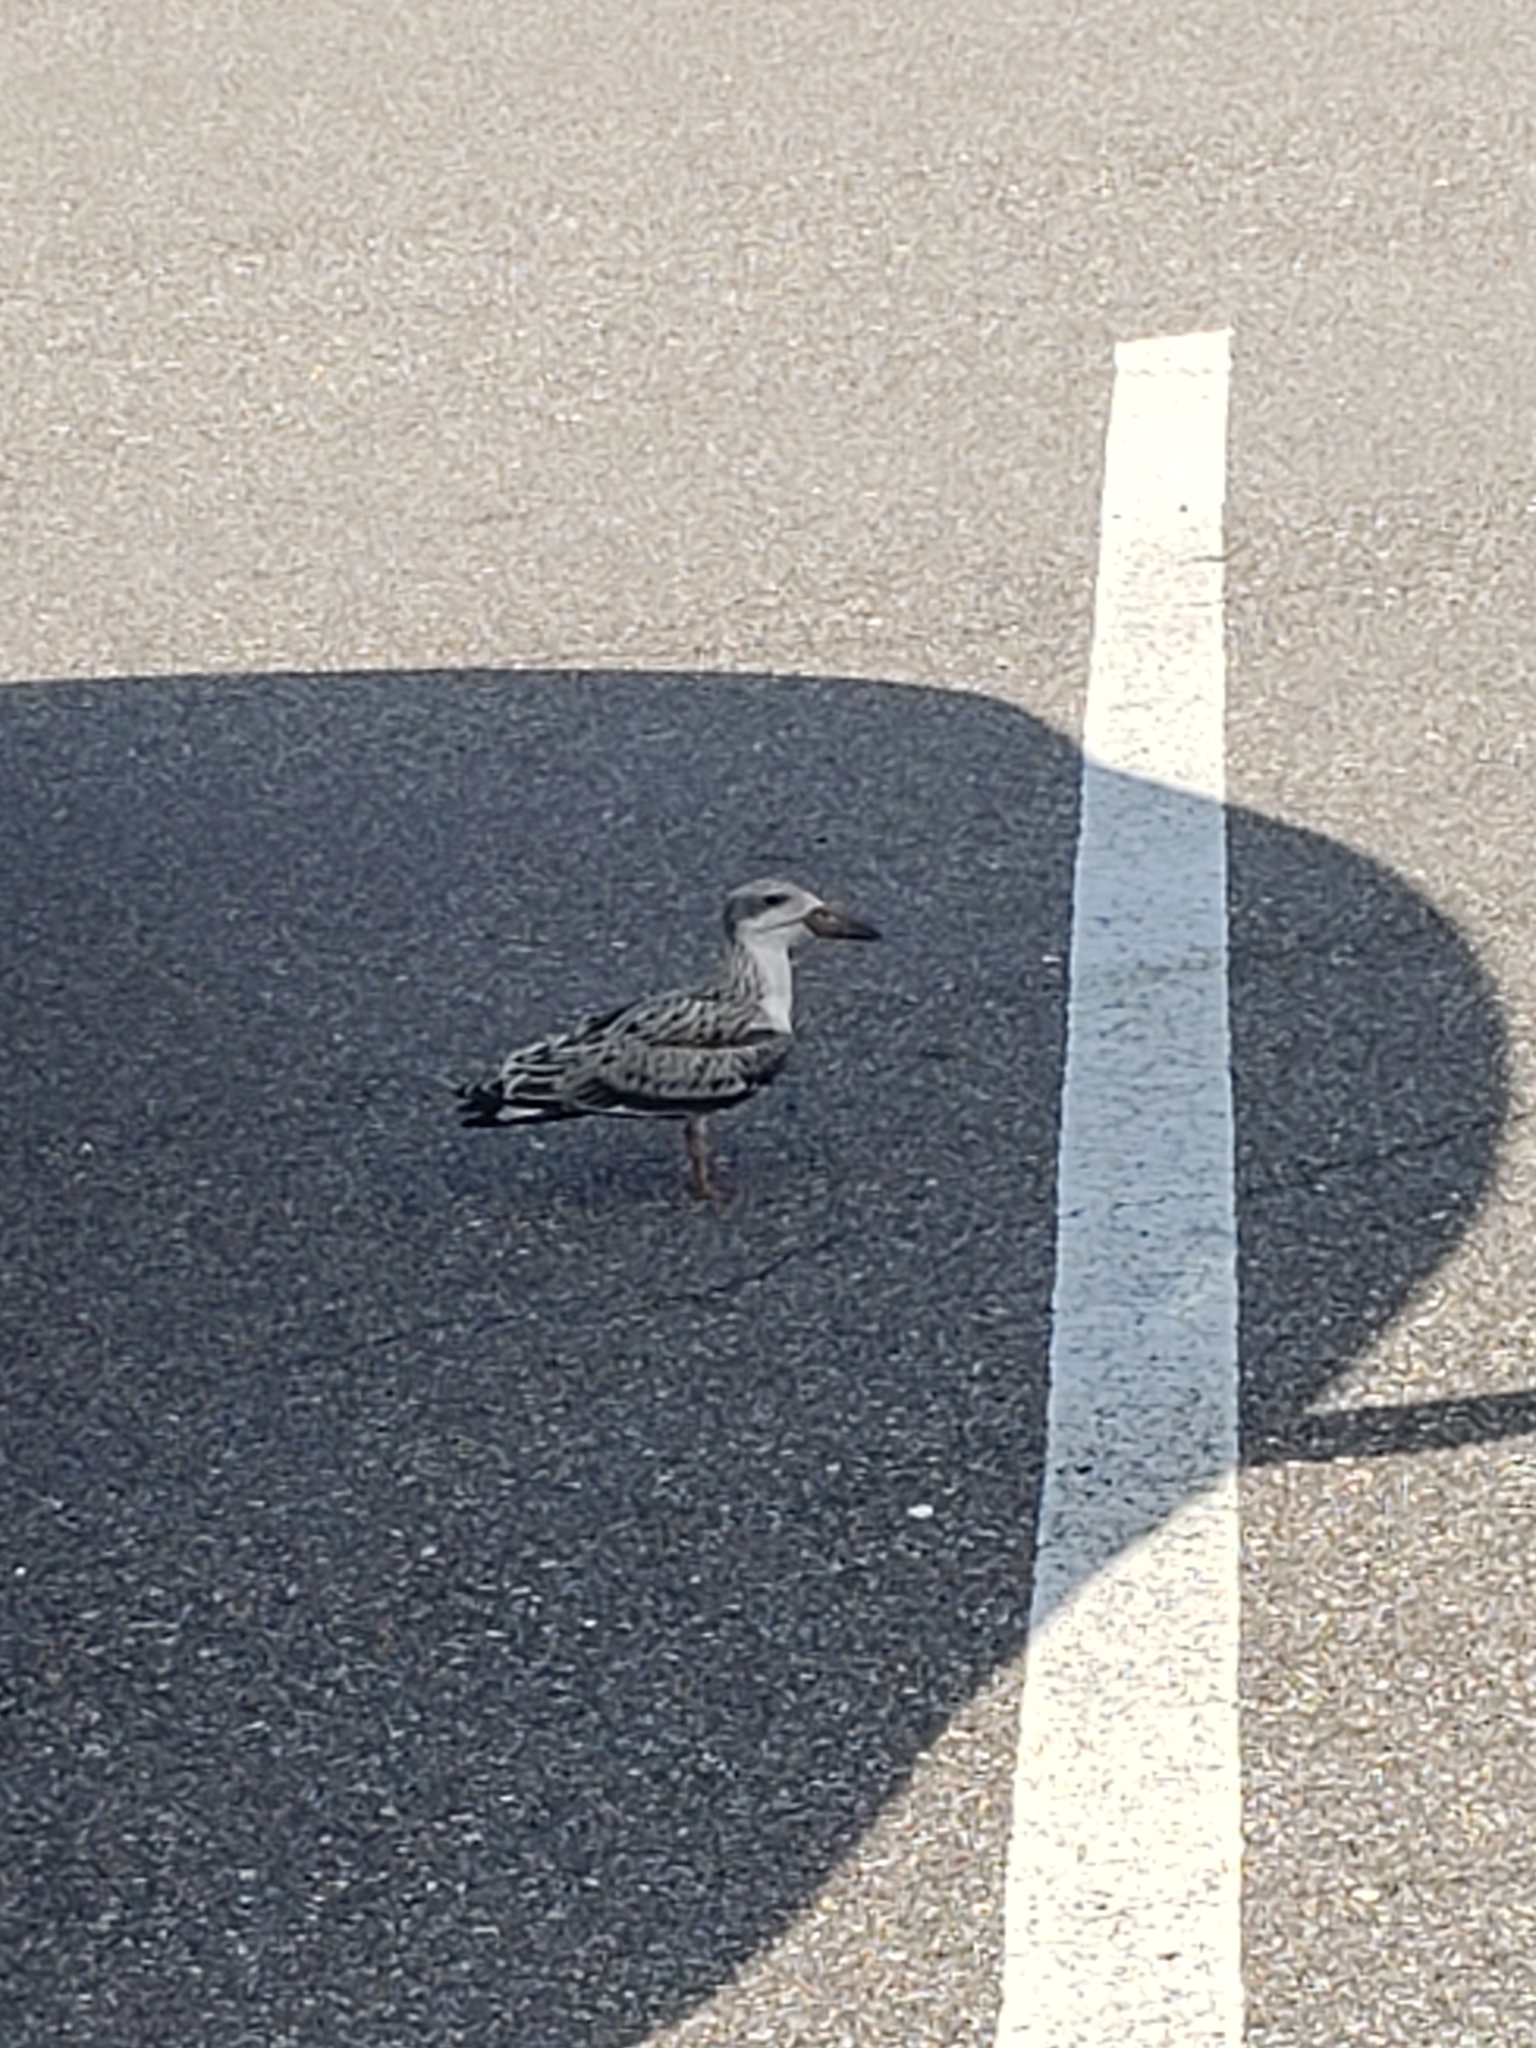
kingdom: Animalia
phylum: Chordata
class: Aves
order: Charadriiformes
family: Laridae
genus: Rynchops
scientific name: Rynchops niger
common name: Black skimmer
